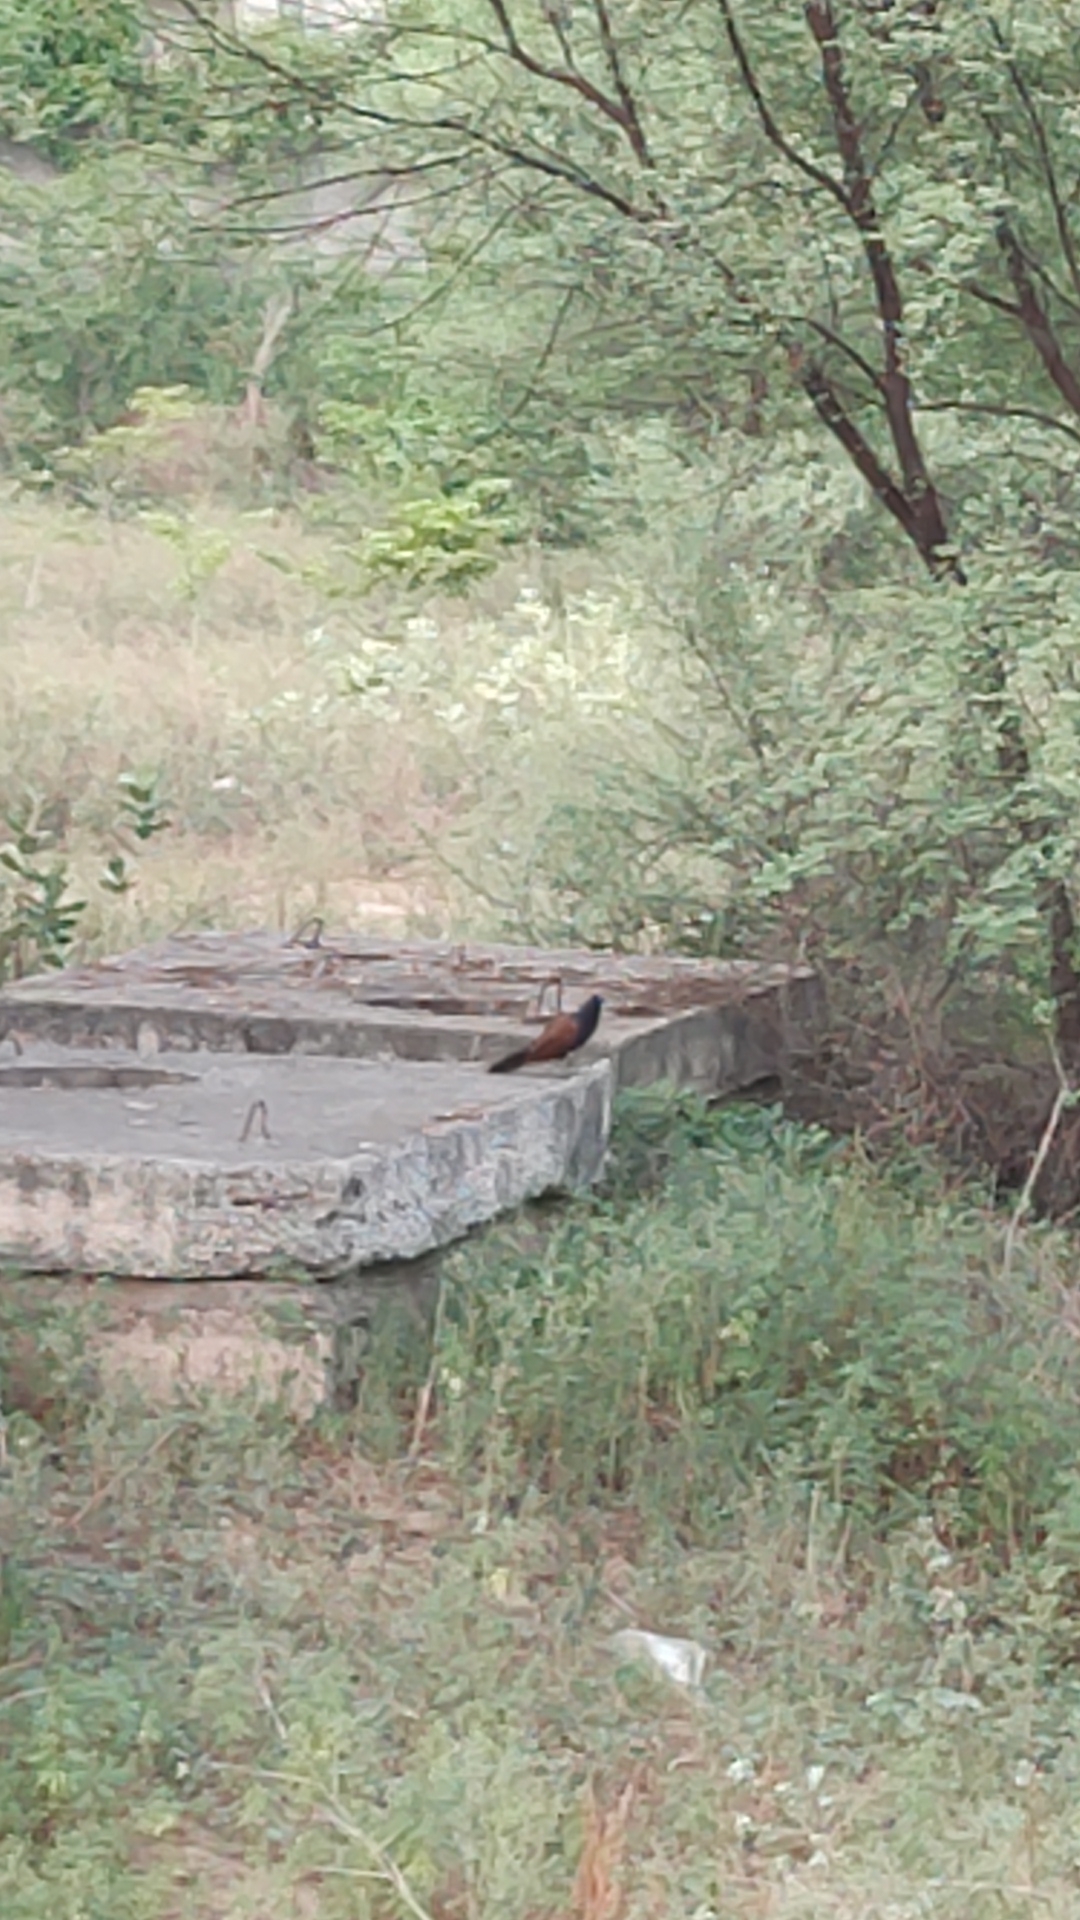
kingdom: Animalia
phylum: Chordata
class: Aves
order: Cuculiformes
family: Cuculidae
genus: Centropus
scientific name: Centropus sinensis
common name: Greater coucal
